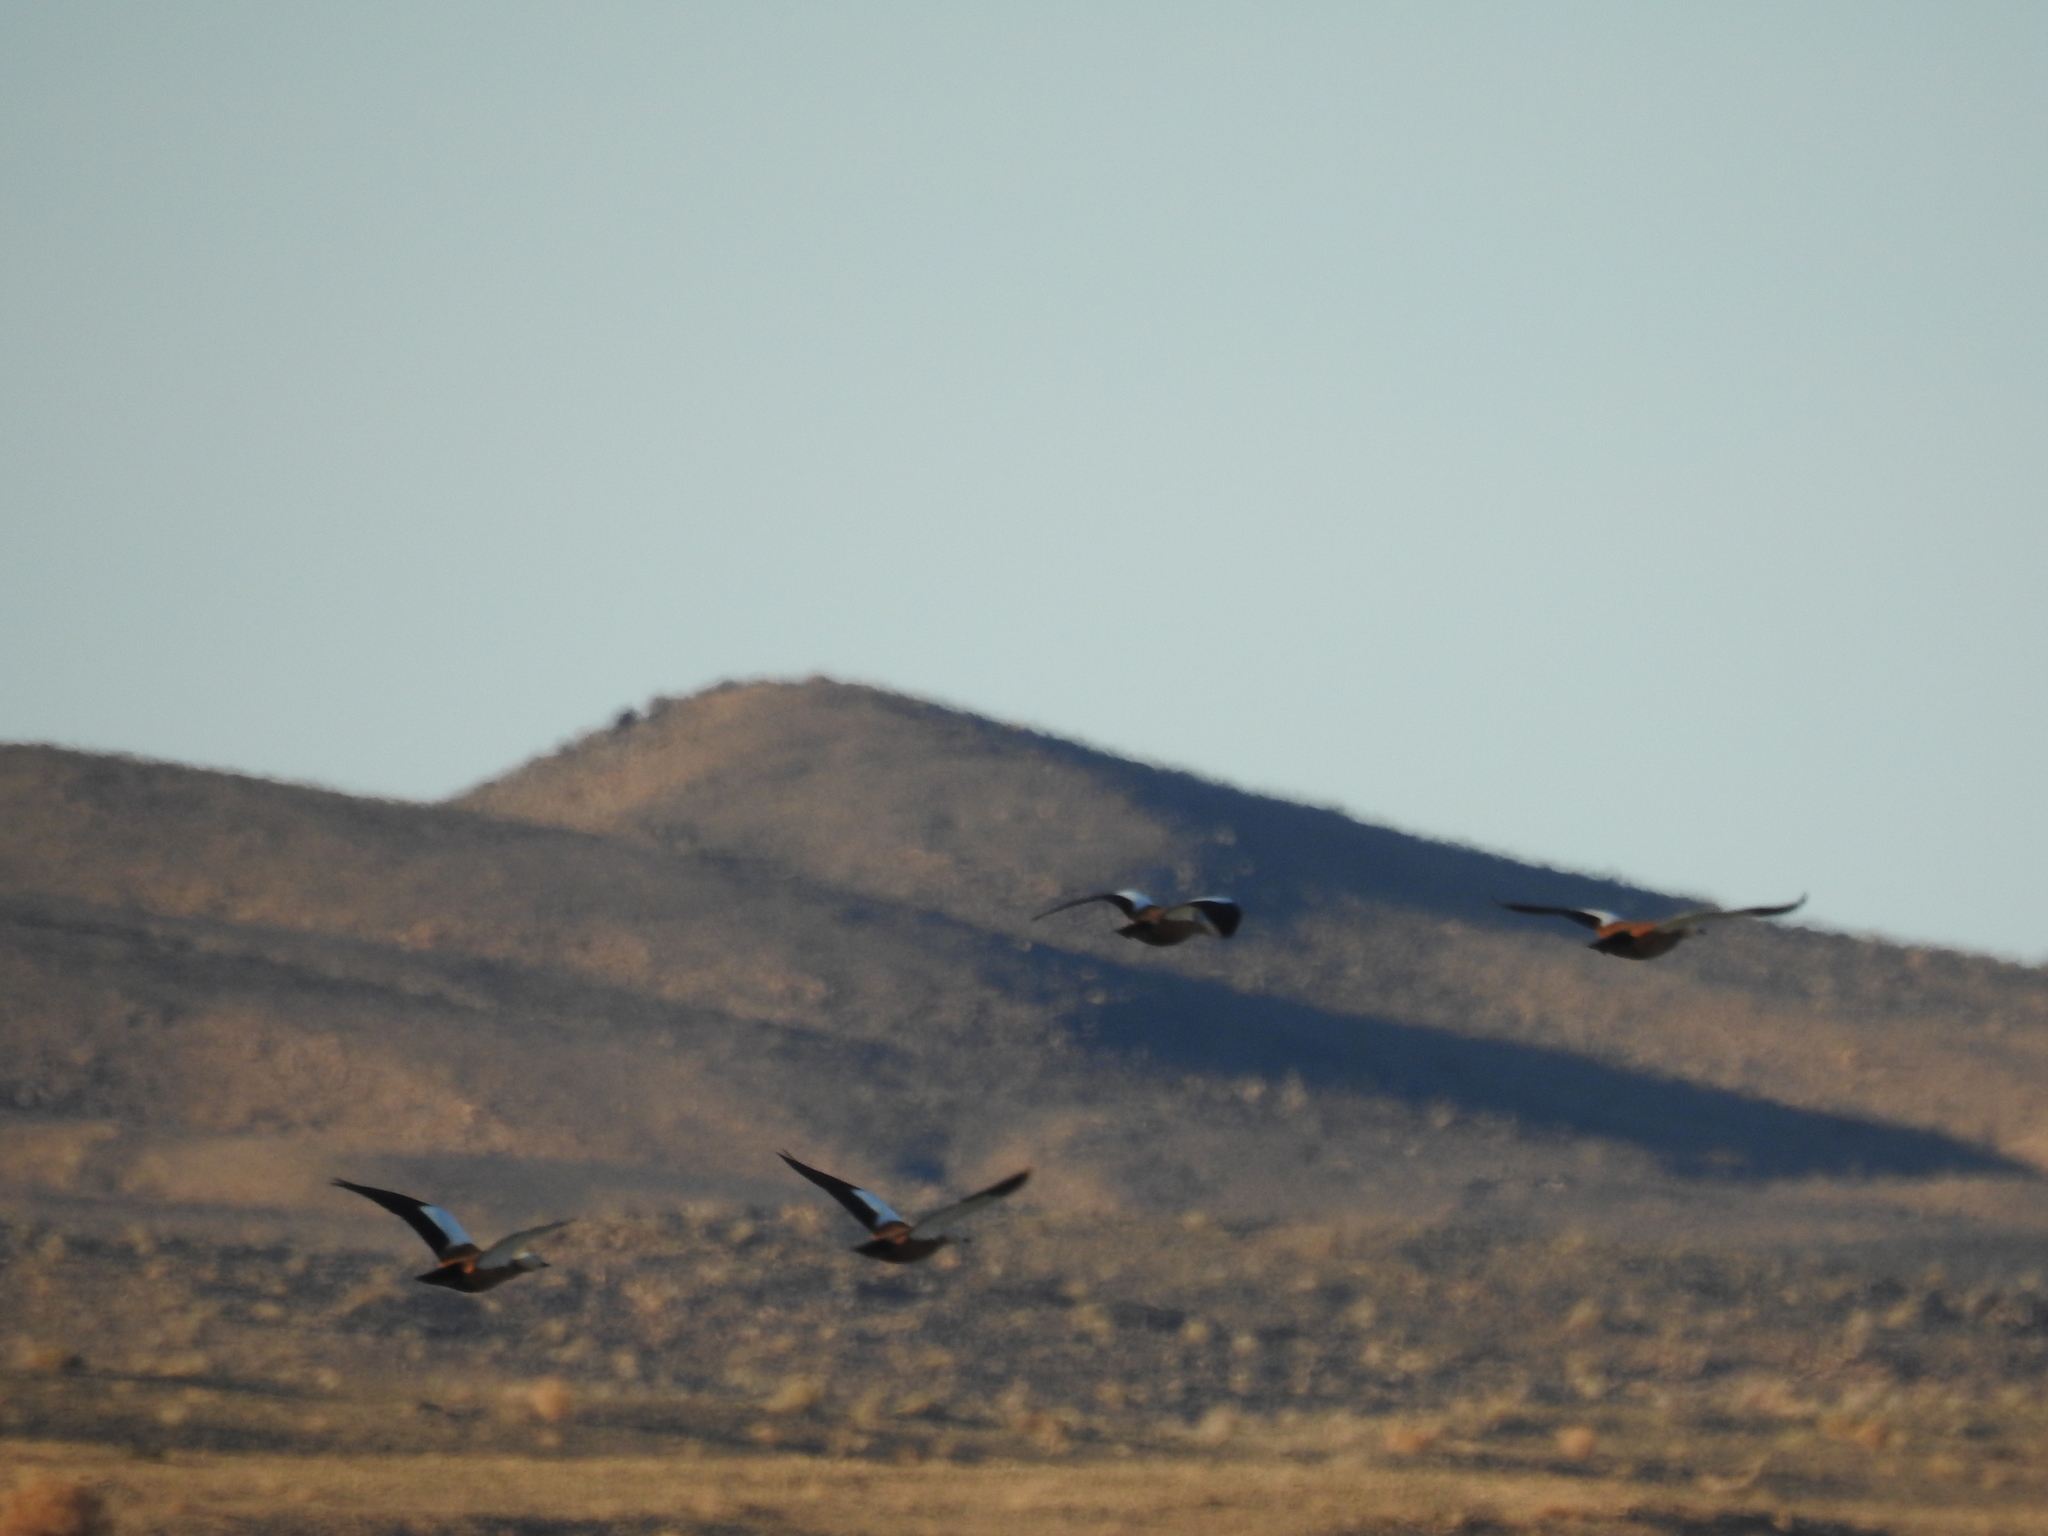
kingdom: Animalia
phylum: Chordata
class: Aves
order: Anseriformes
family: Anatidae
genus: Tadorna
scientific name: Tadorna ferruginea
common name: Ruddy shelduck
